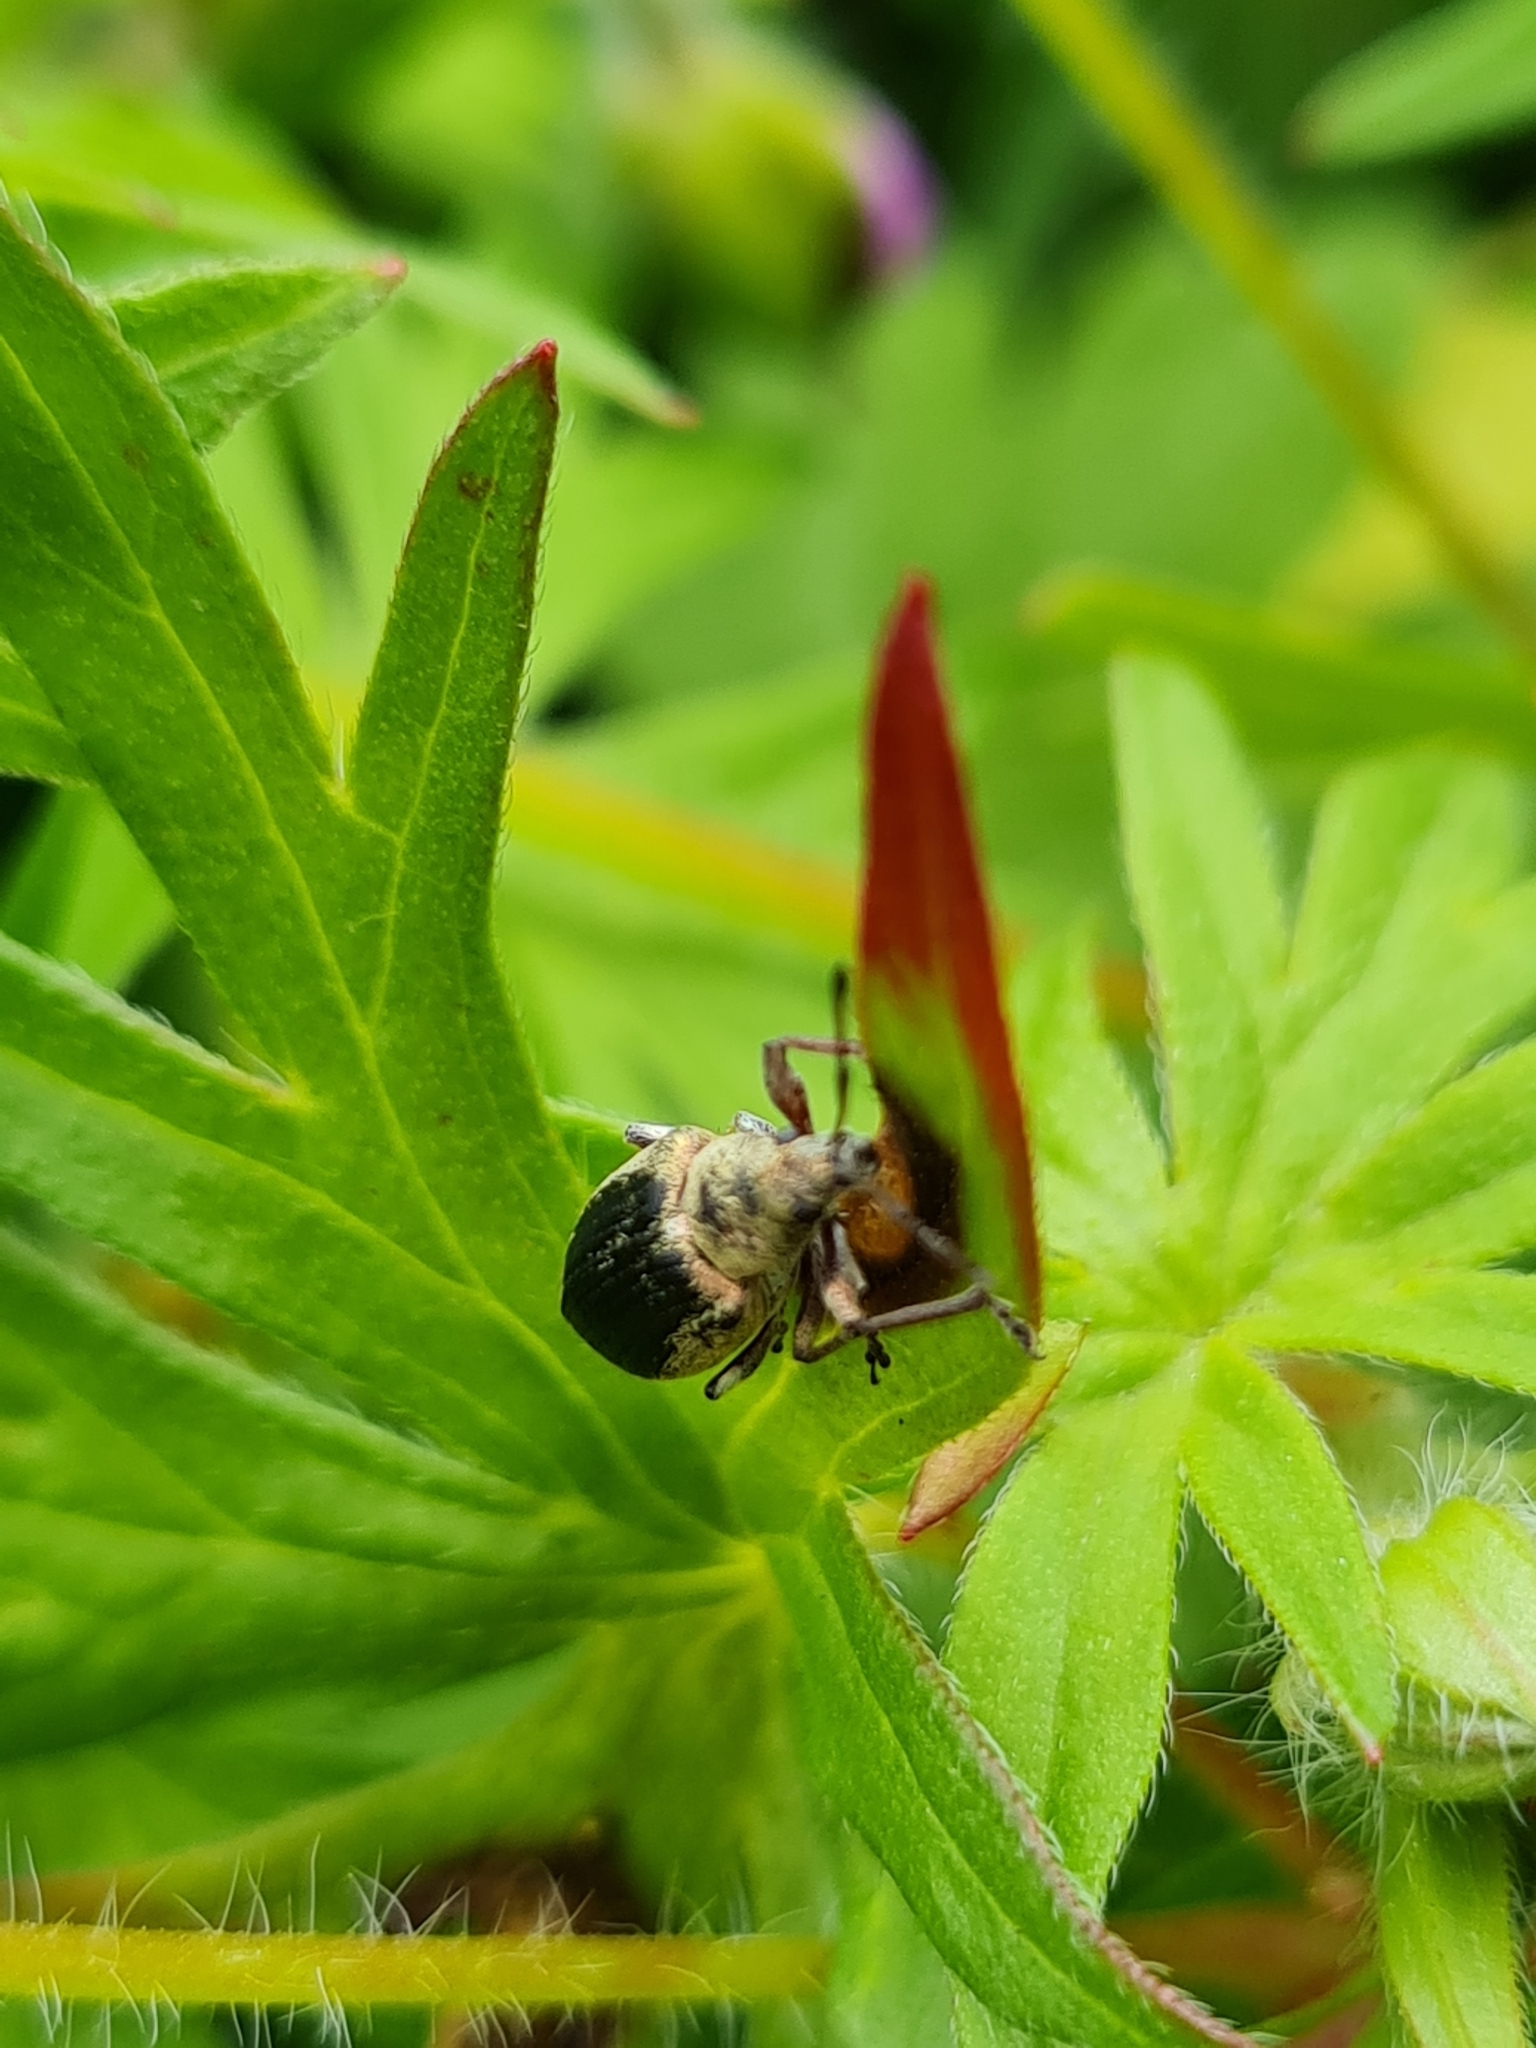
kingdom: Animalia
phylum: Arthropoda
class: Insecta
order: Coleoptera
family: Curculionidae
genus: Phyllobius
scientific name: Phyllobius pomaceus
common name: Green nettle weevil
